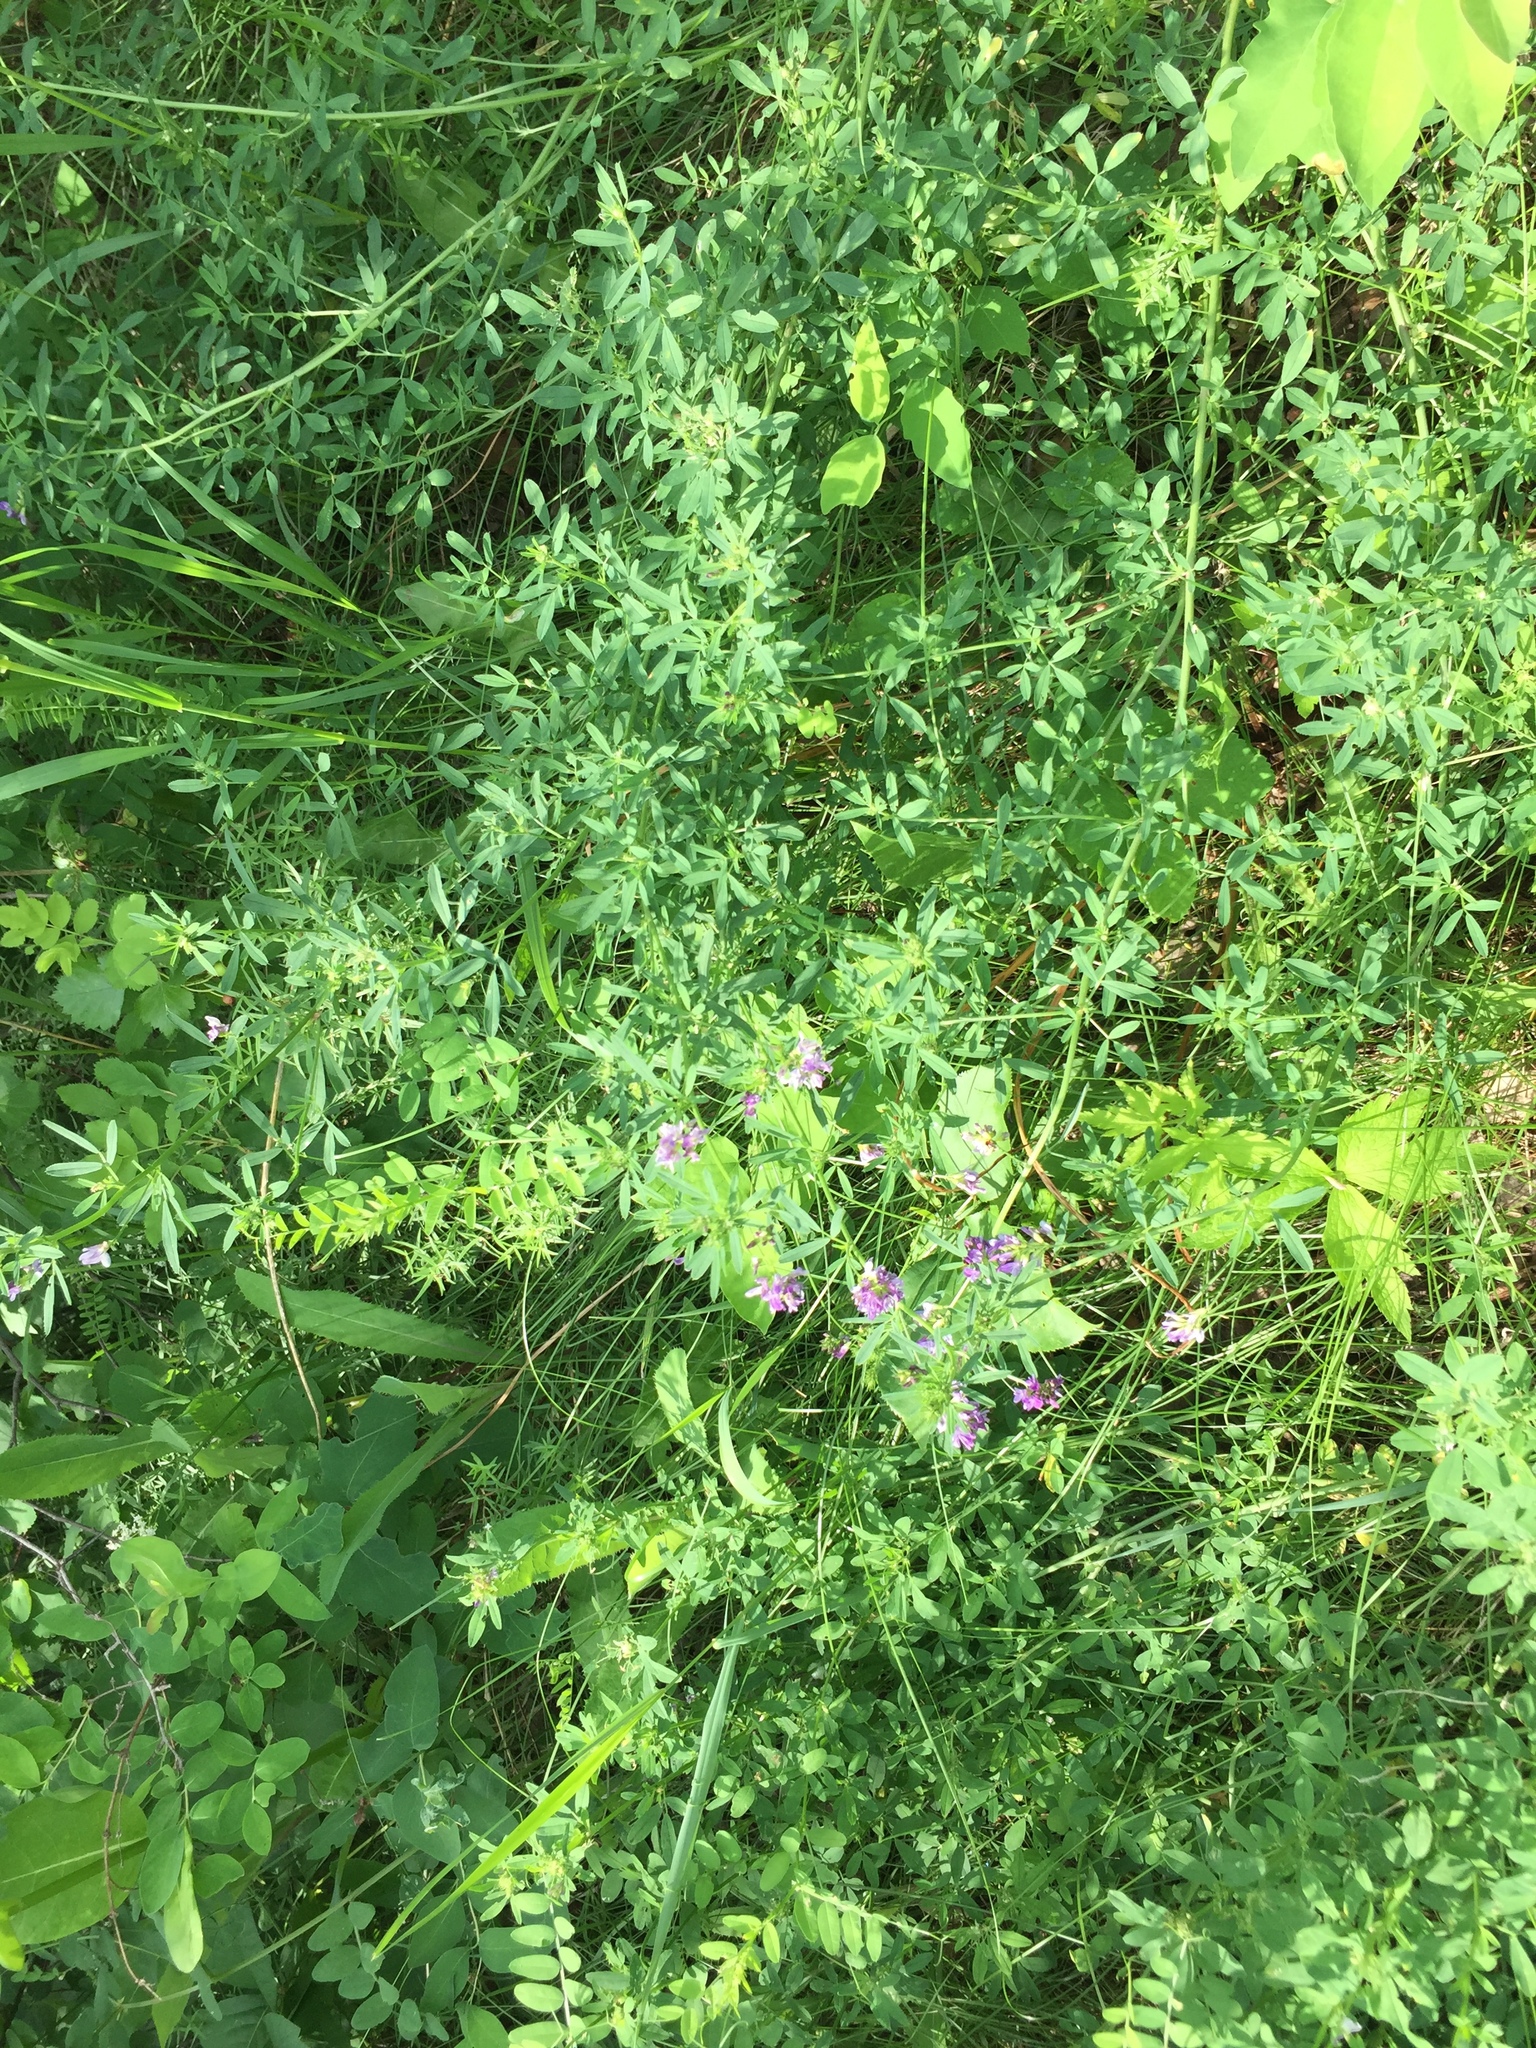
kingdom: Plantae
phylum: Tracheophyta
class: Magnoliopsida
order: Fabales
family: Fabaceae
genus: Medicago
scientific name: Medicago sativa
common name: Alfalfa
